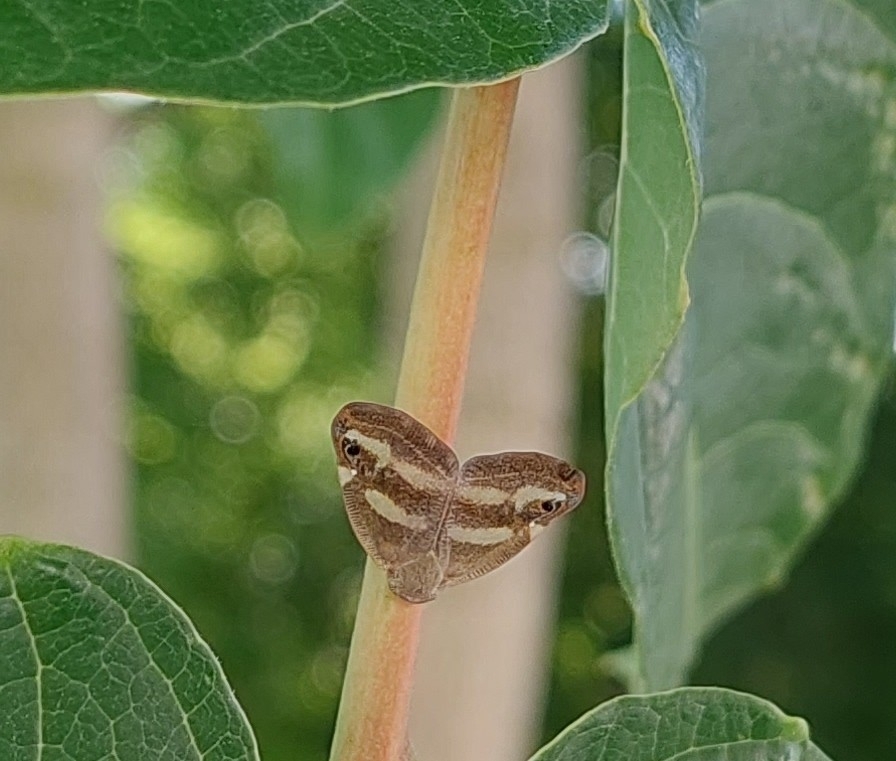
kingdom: Animalia
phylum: Arthropoda
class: Insecta
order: Hemiptera
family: Ricaniidae
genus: Orosanga
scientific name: Orosanga japonica
